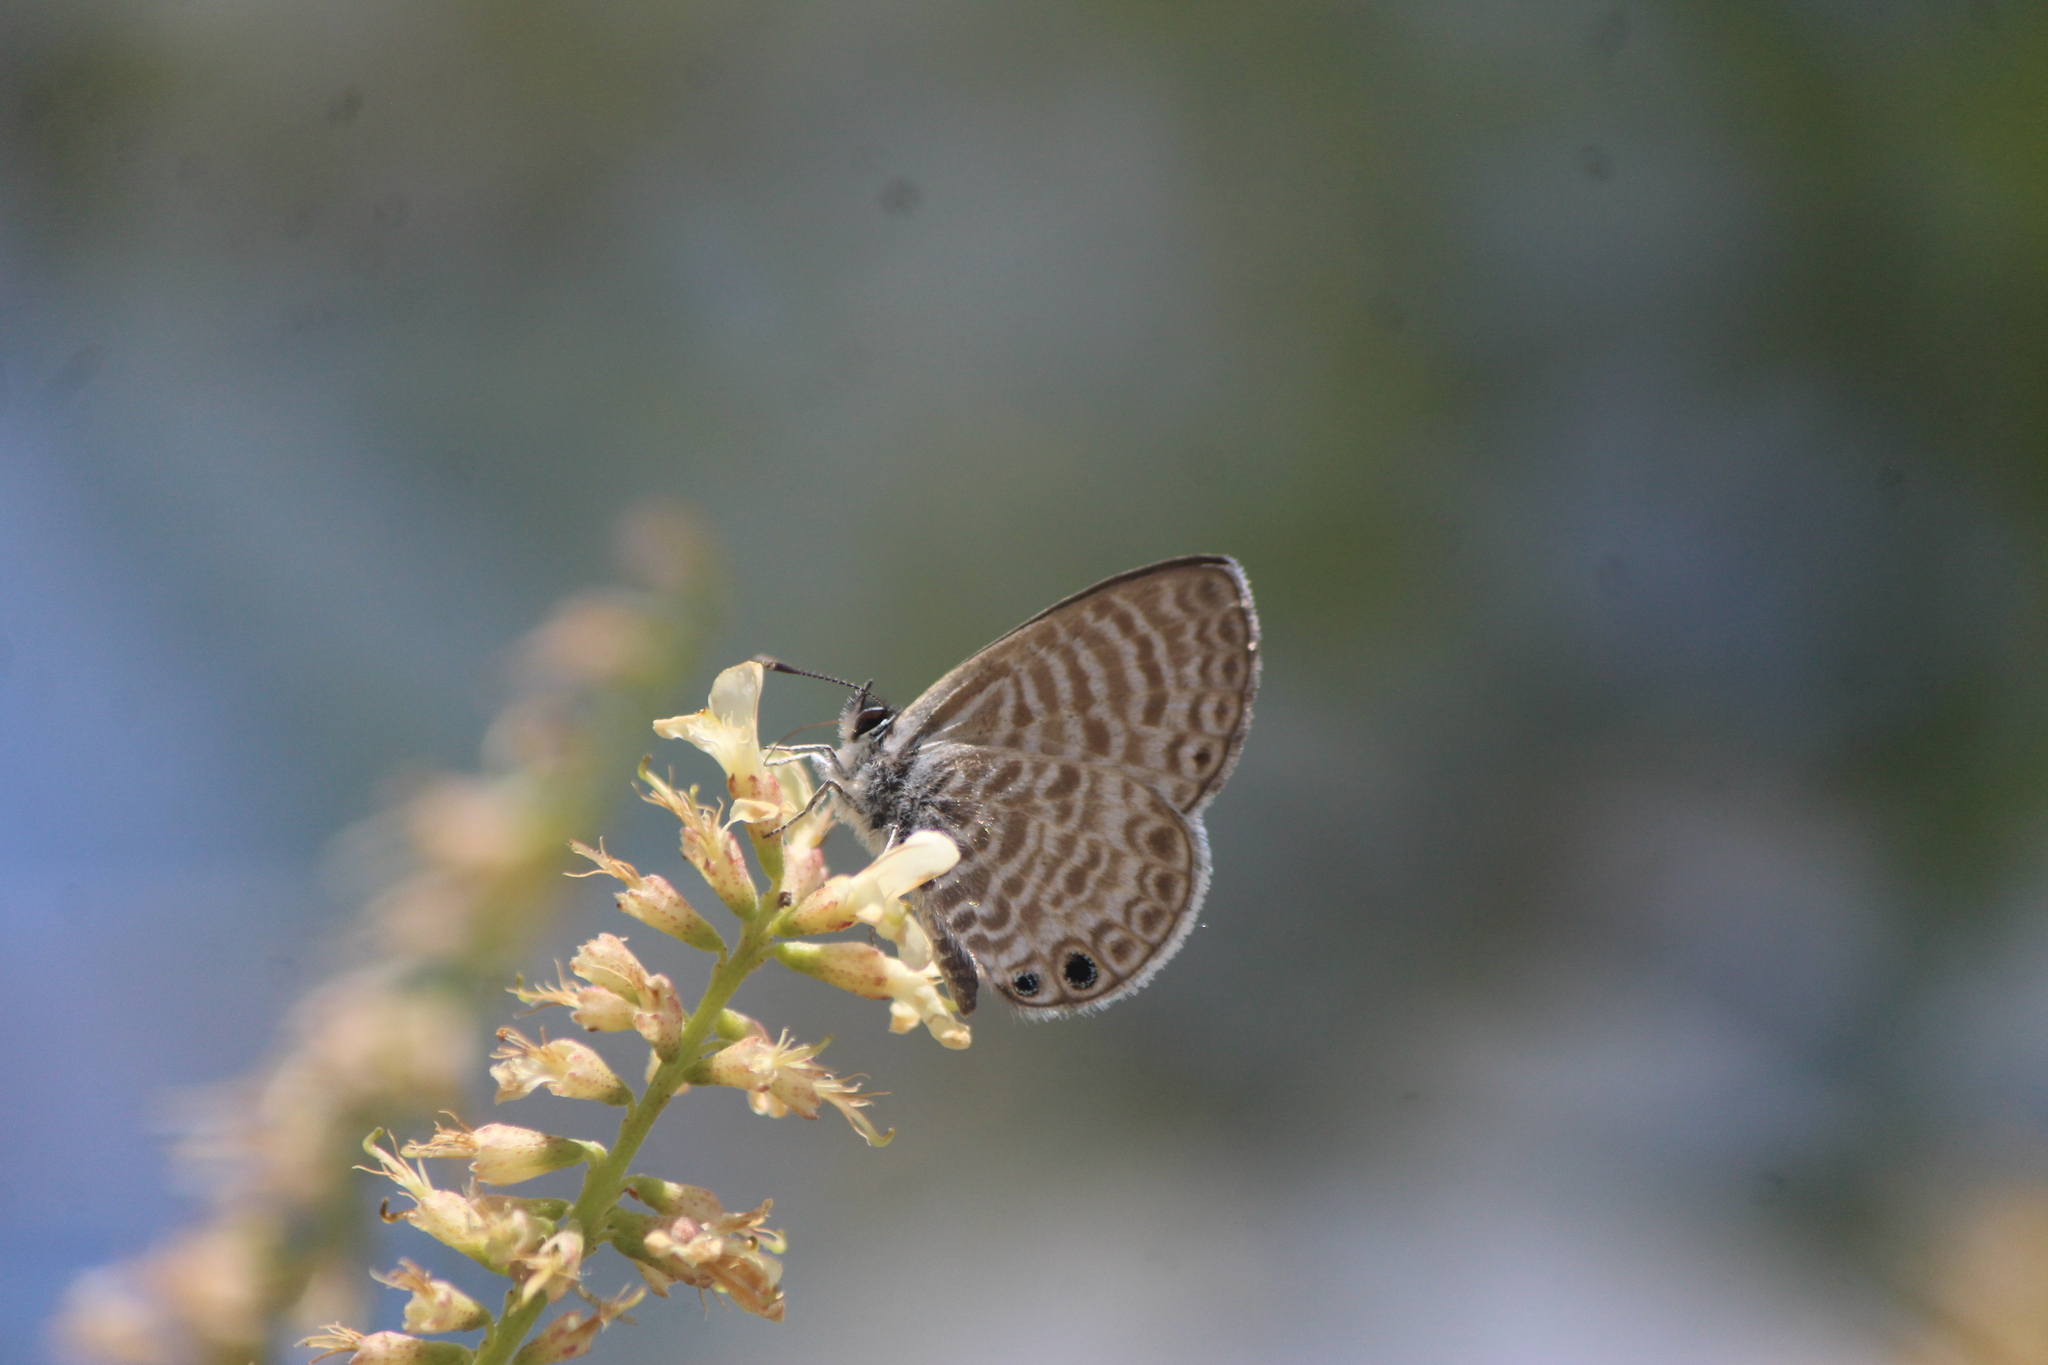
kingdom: Animalia
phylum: Arthropoda
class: Insecta
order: Lepidoptera
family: Lycaenidae
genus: Leptotes
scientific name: Leptotes marina
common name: Marine blue
